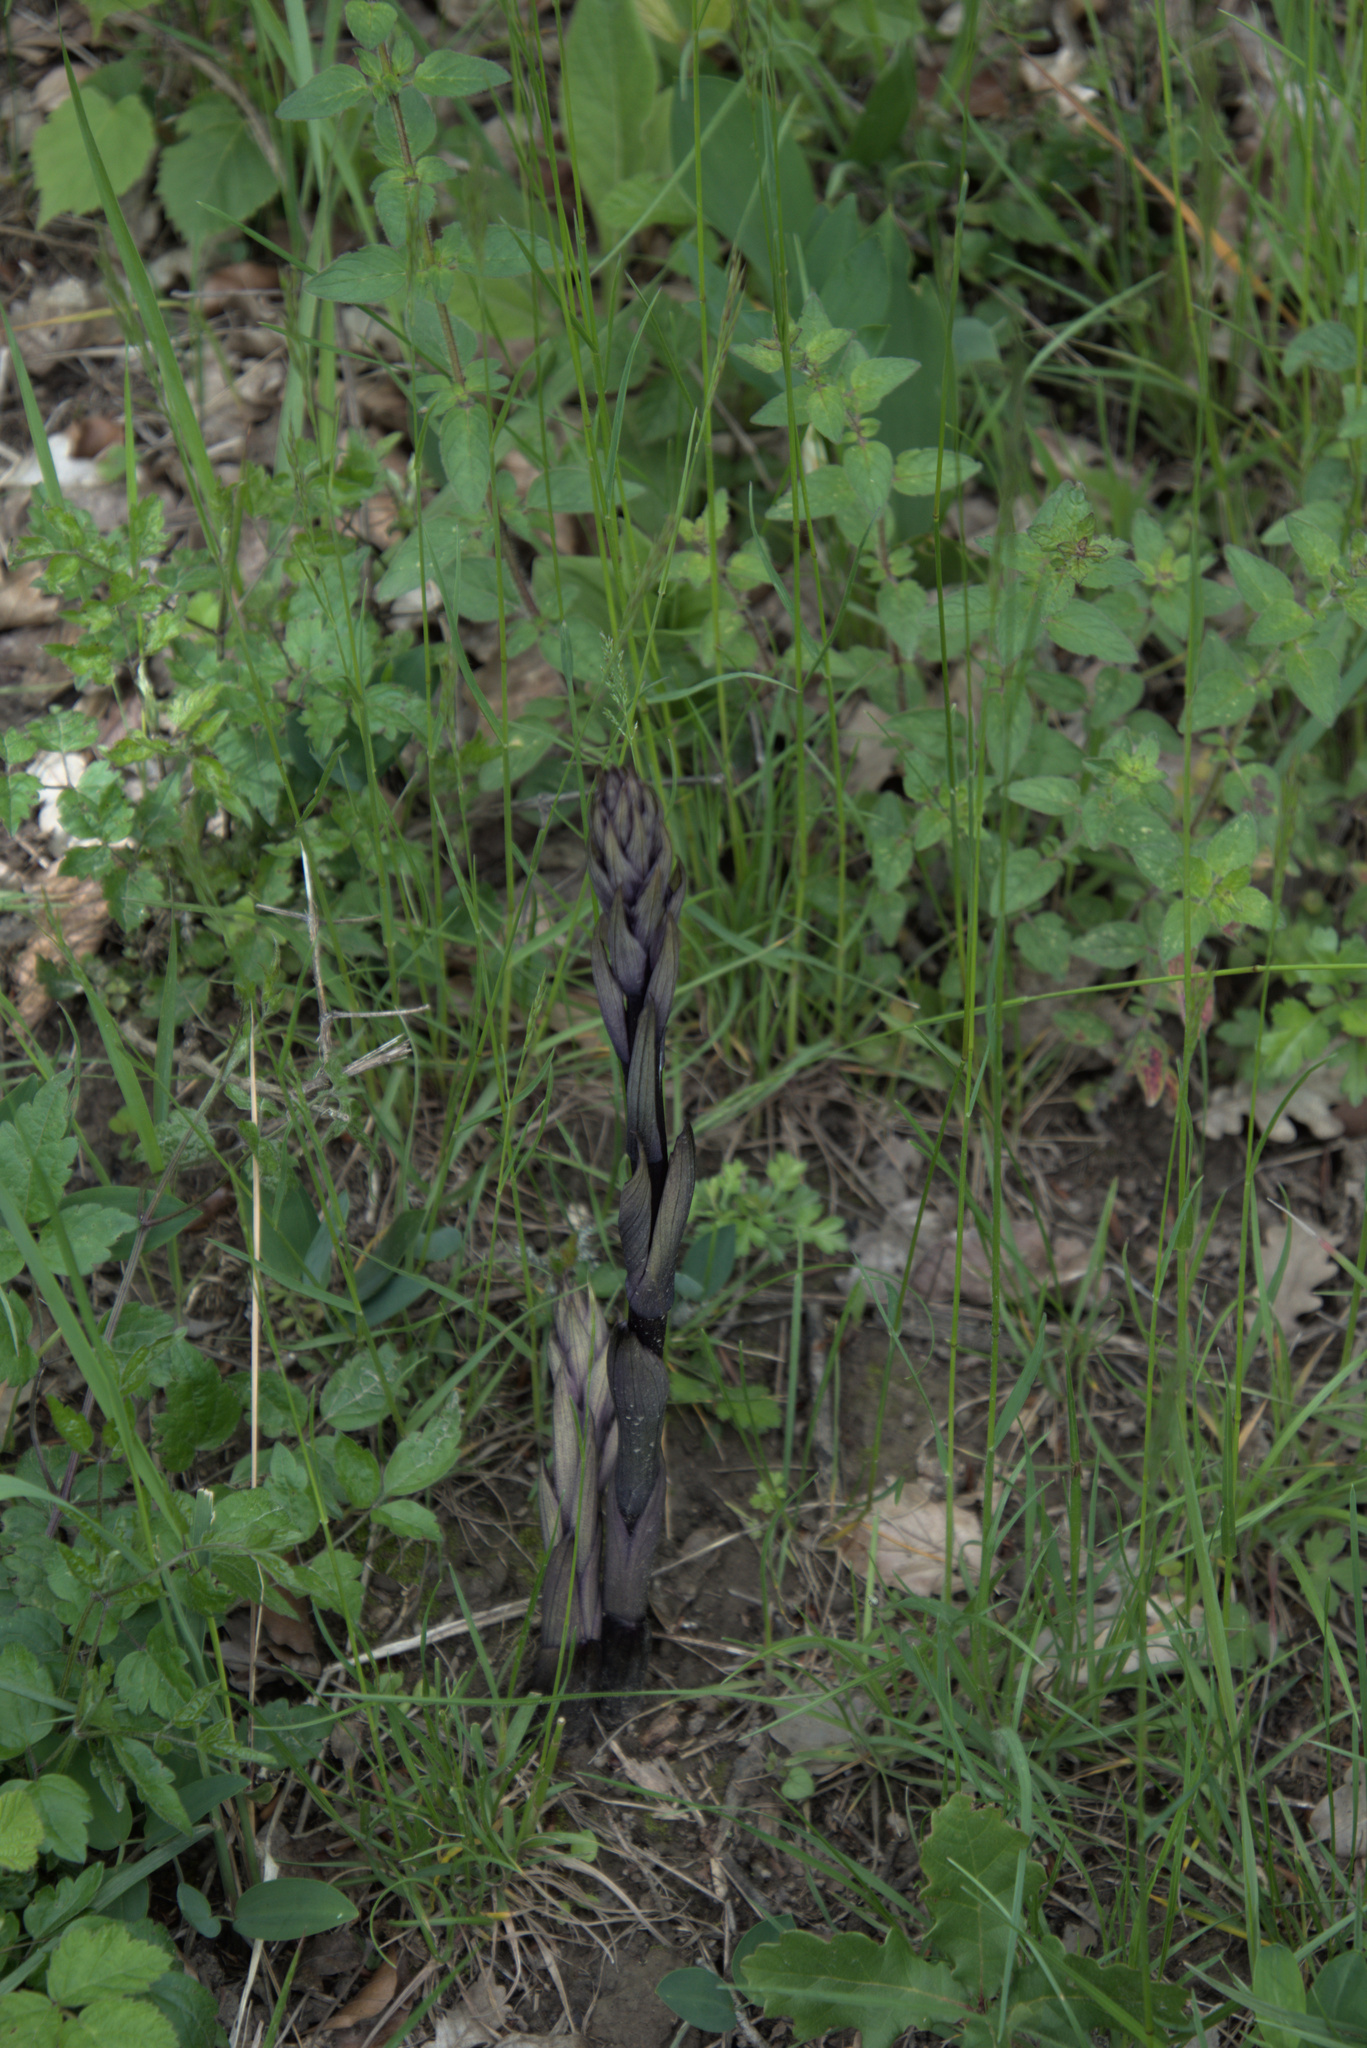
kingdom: Plantae
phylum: Tracheophyta
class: Liliopsida
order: Asparagales
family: Orchidaceae
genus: Limodorum
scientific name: Limodorum abortivum
